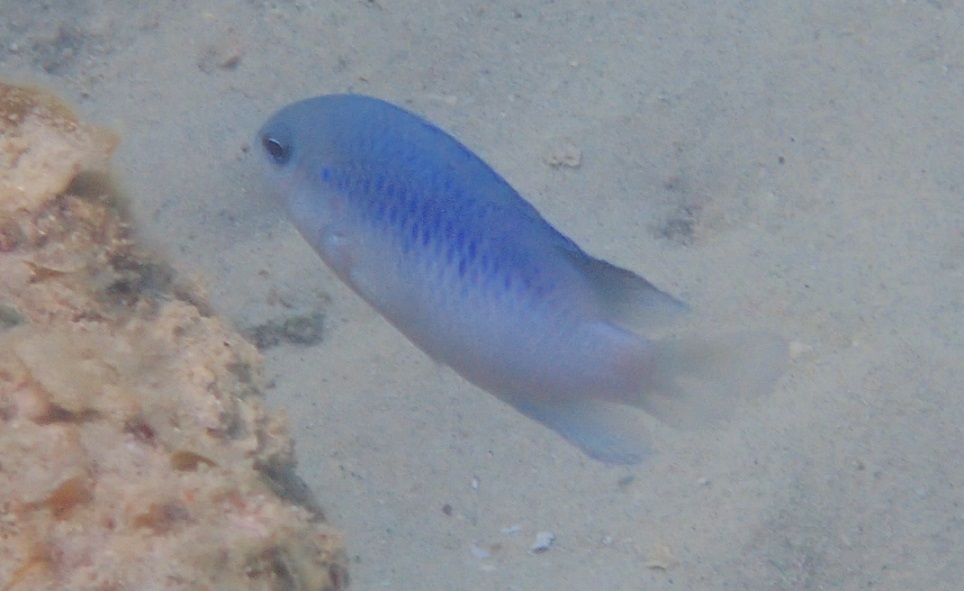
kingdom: Animalia
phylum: Chordata
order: Perciformes
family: Pomacentridae
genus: Pomacentrus
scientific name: Pomacentrus australis
